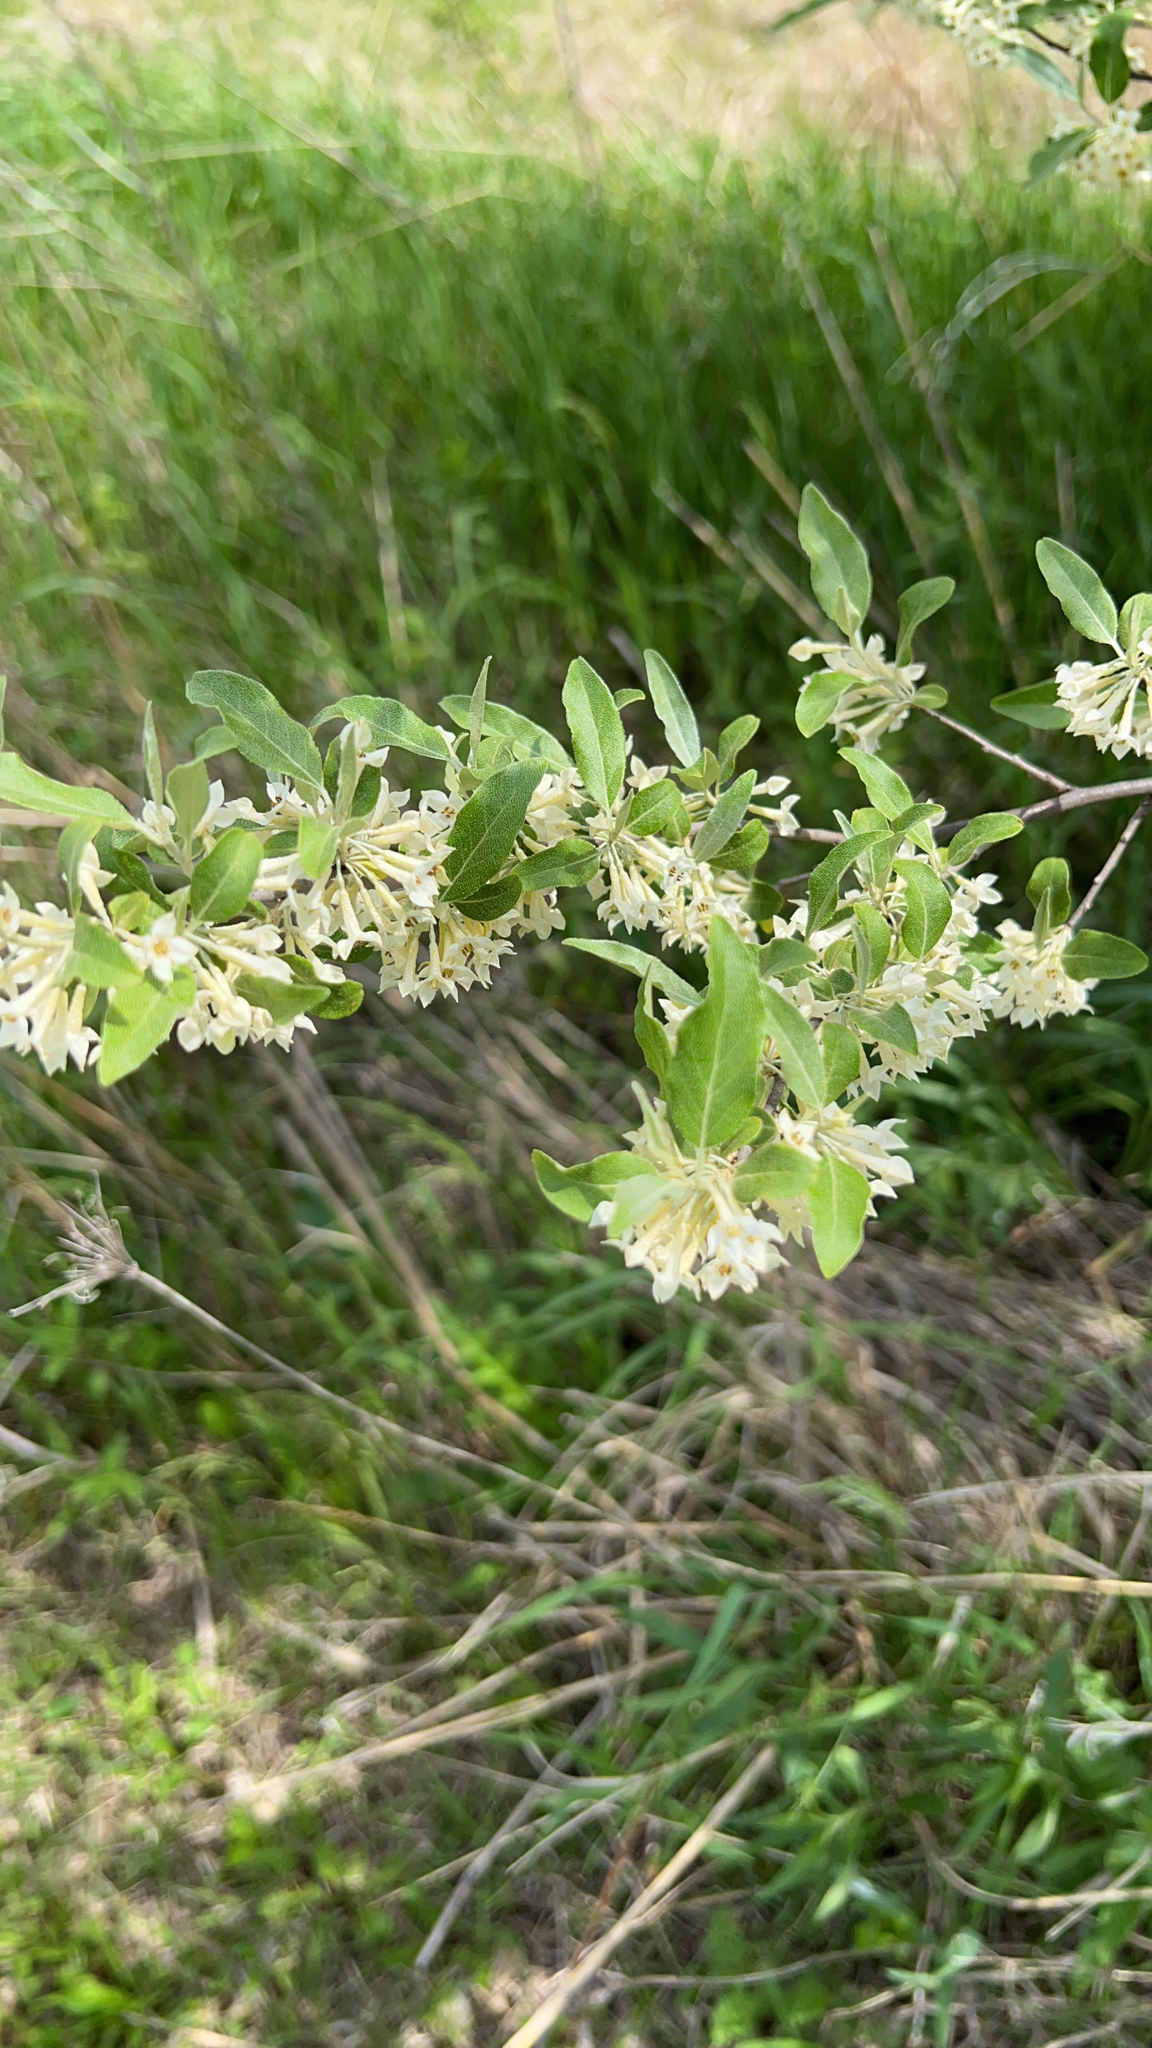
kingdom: Plantae
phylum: Tracheophyta
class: Magnoliopsida
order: Rosales
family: Elaeagnaceae
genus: Elaeagnus
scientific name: Elaeagnus umbellata
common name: Autumn olive
